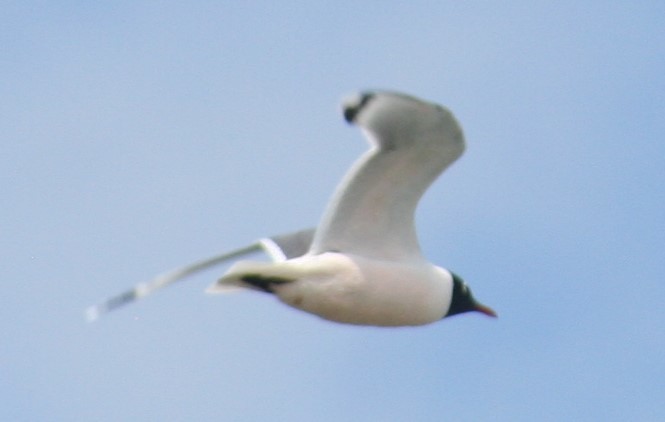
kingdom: Animalia
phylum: Chordata
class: Aves
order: Charadriiformes
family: Laridae
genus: Leucophaeus
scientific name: Leucophaeus pipixcan
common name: Franklin's gull
